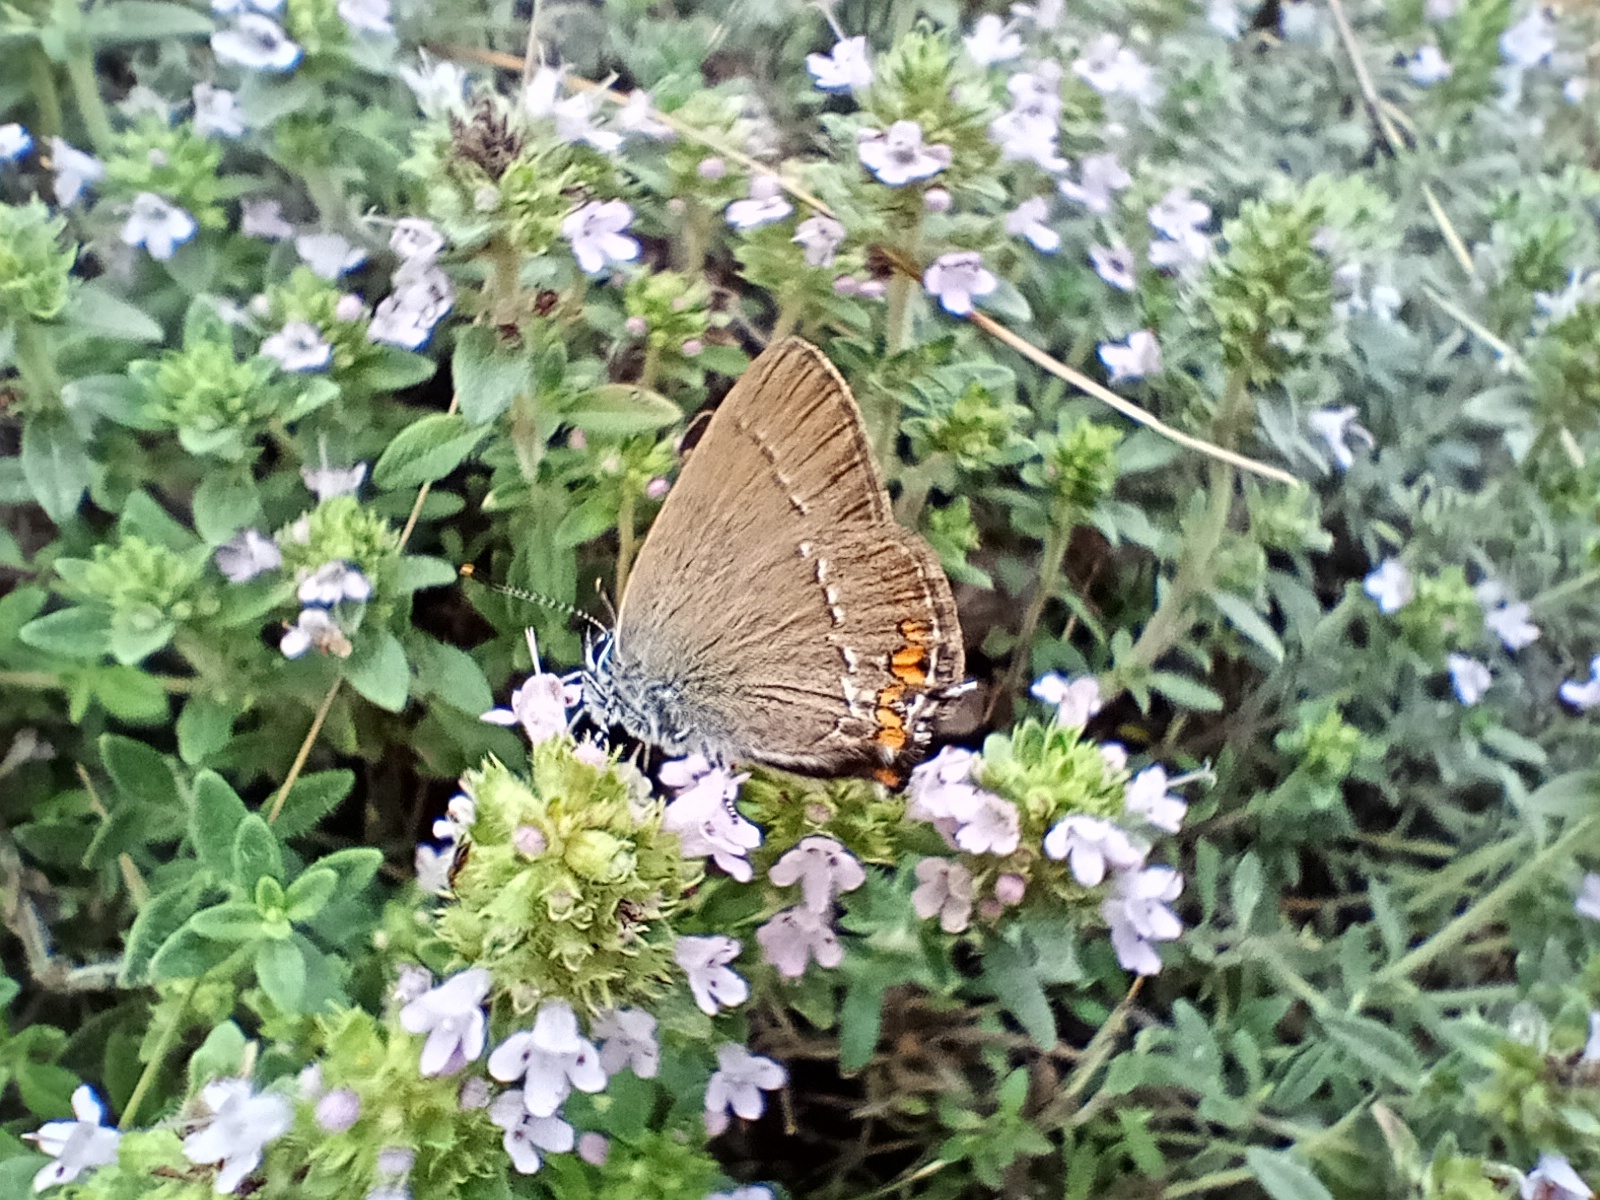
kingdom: Animalia
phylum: Arthropoda
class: Insecta
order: Lepidoptera
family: Lycaenidae
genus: Strymon
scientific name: Strymon acaciae
